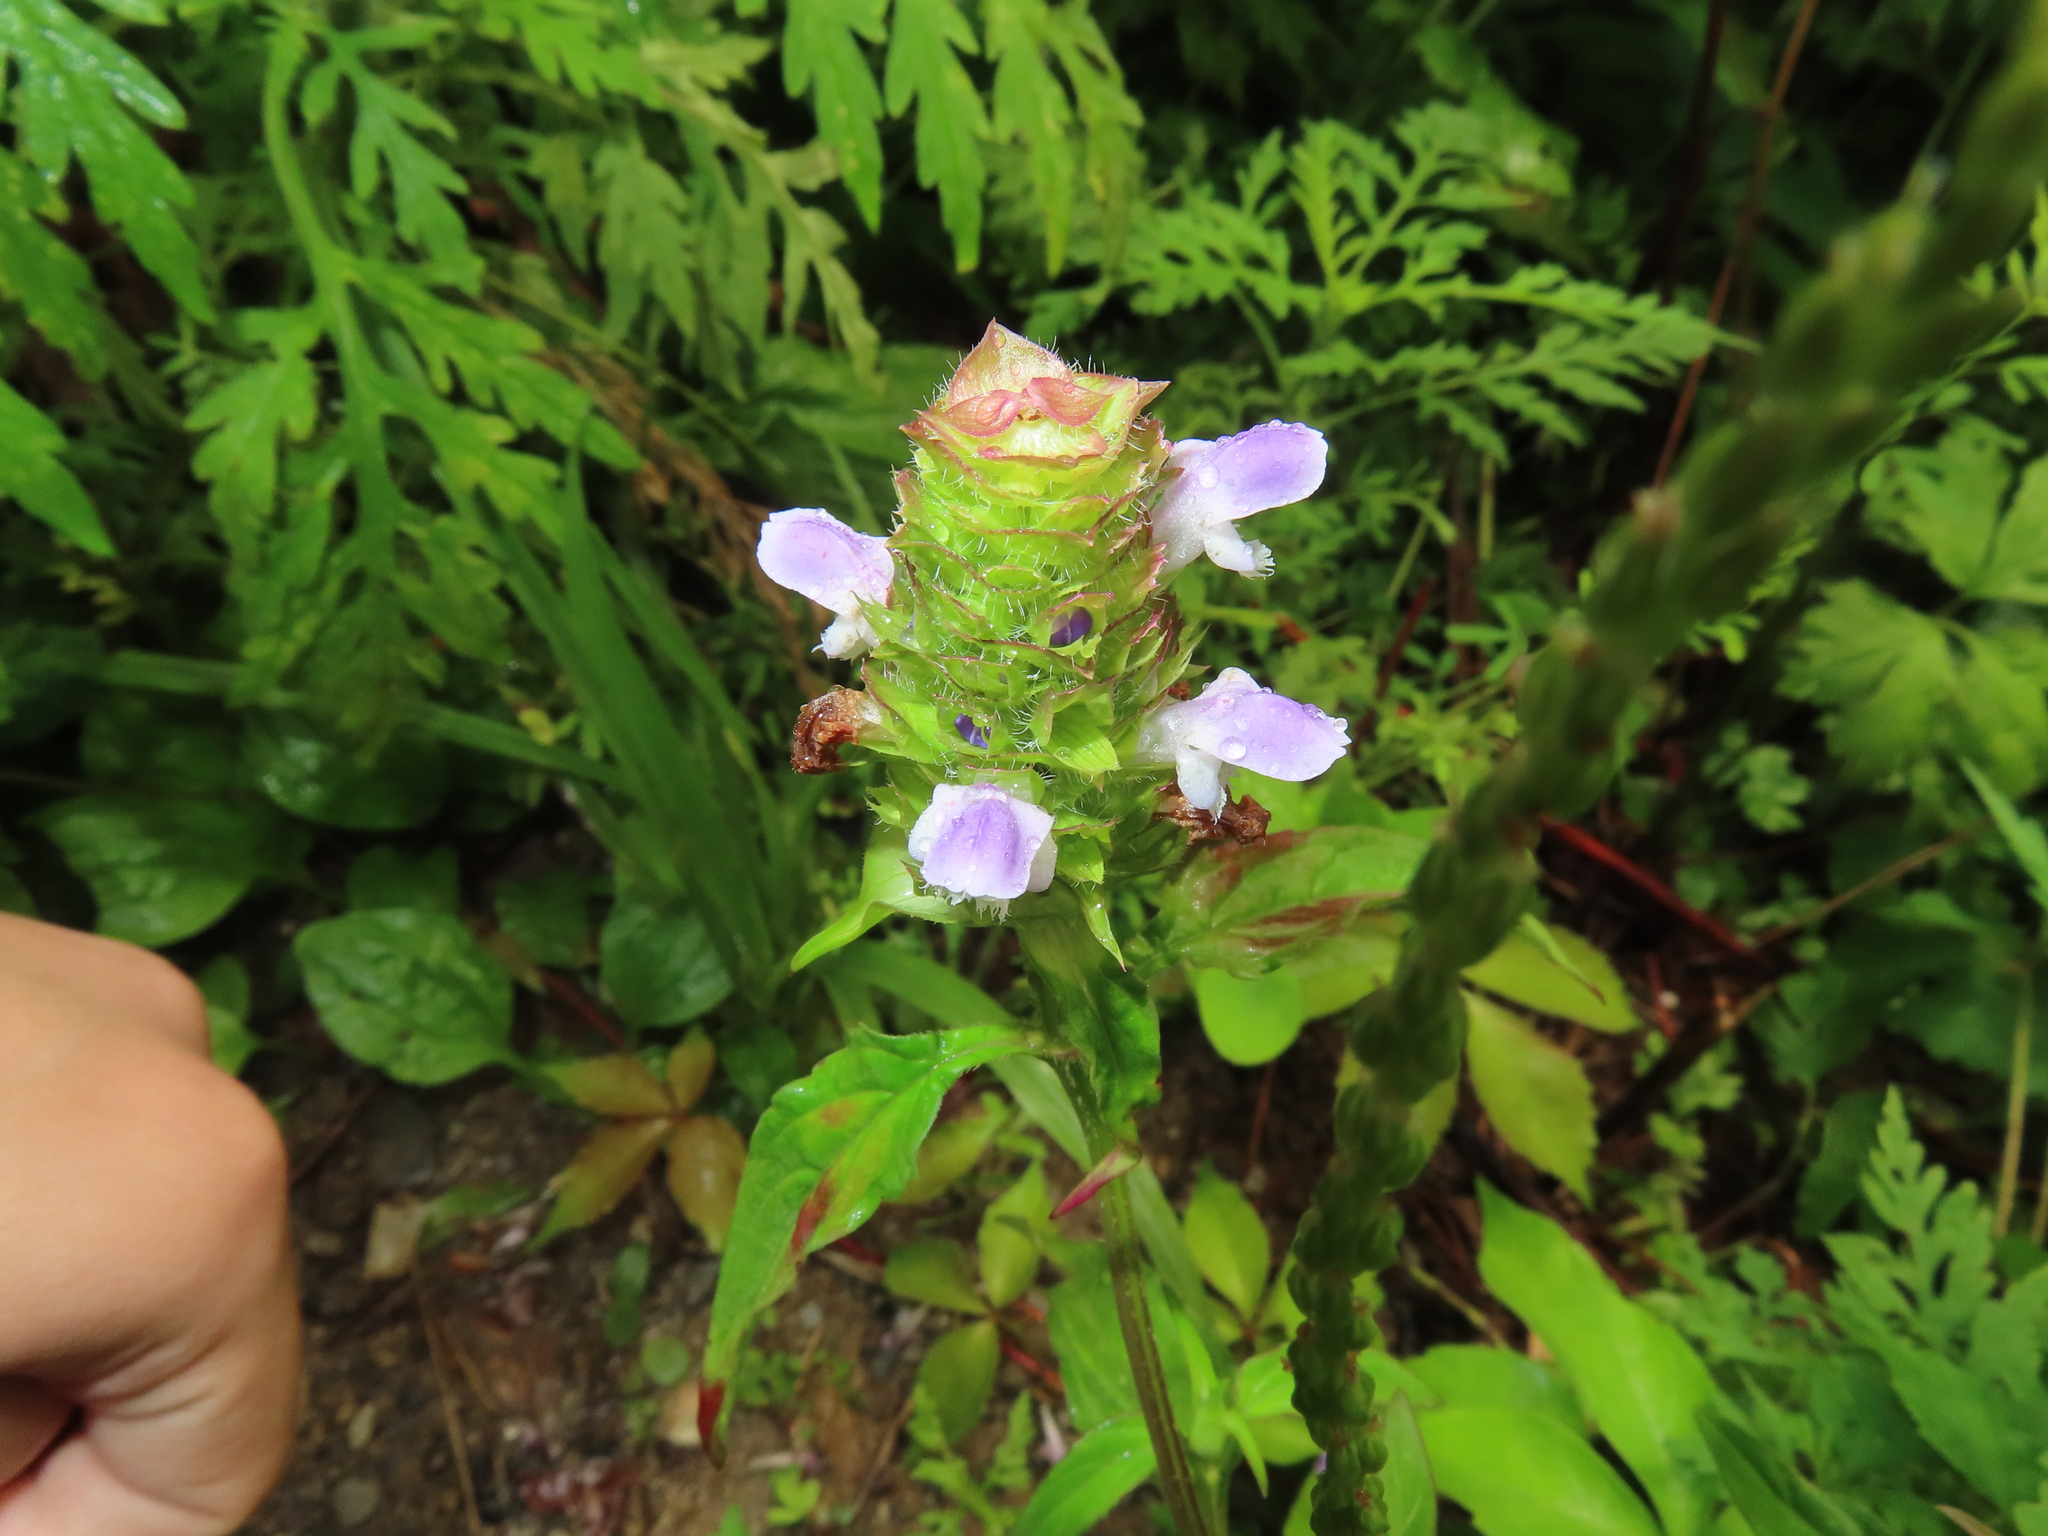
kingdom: Plantae
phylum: Tracheophyta
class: Magnoliopsida
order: Lamiales
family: Lamiaceae
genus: Prunella
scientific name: Prunella vulgaris
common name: Heal-all
